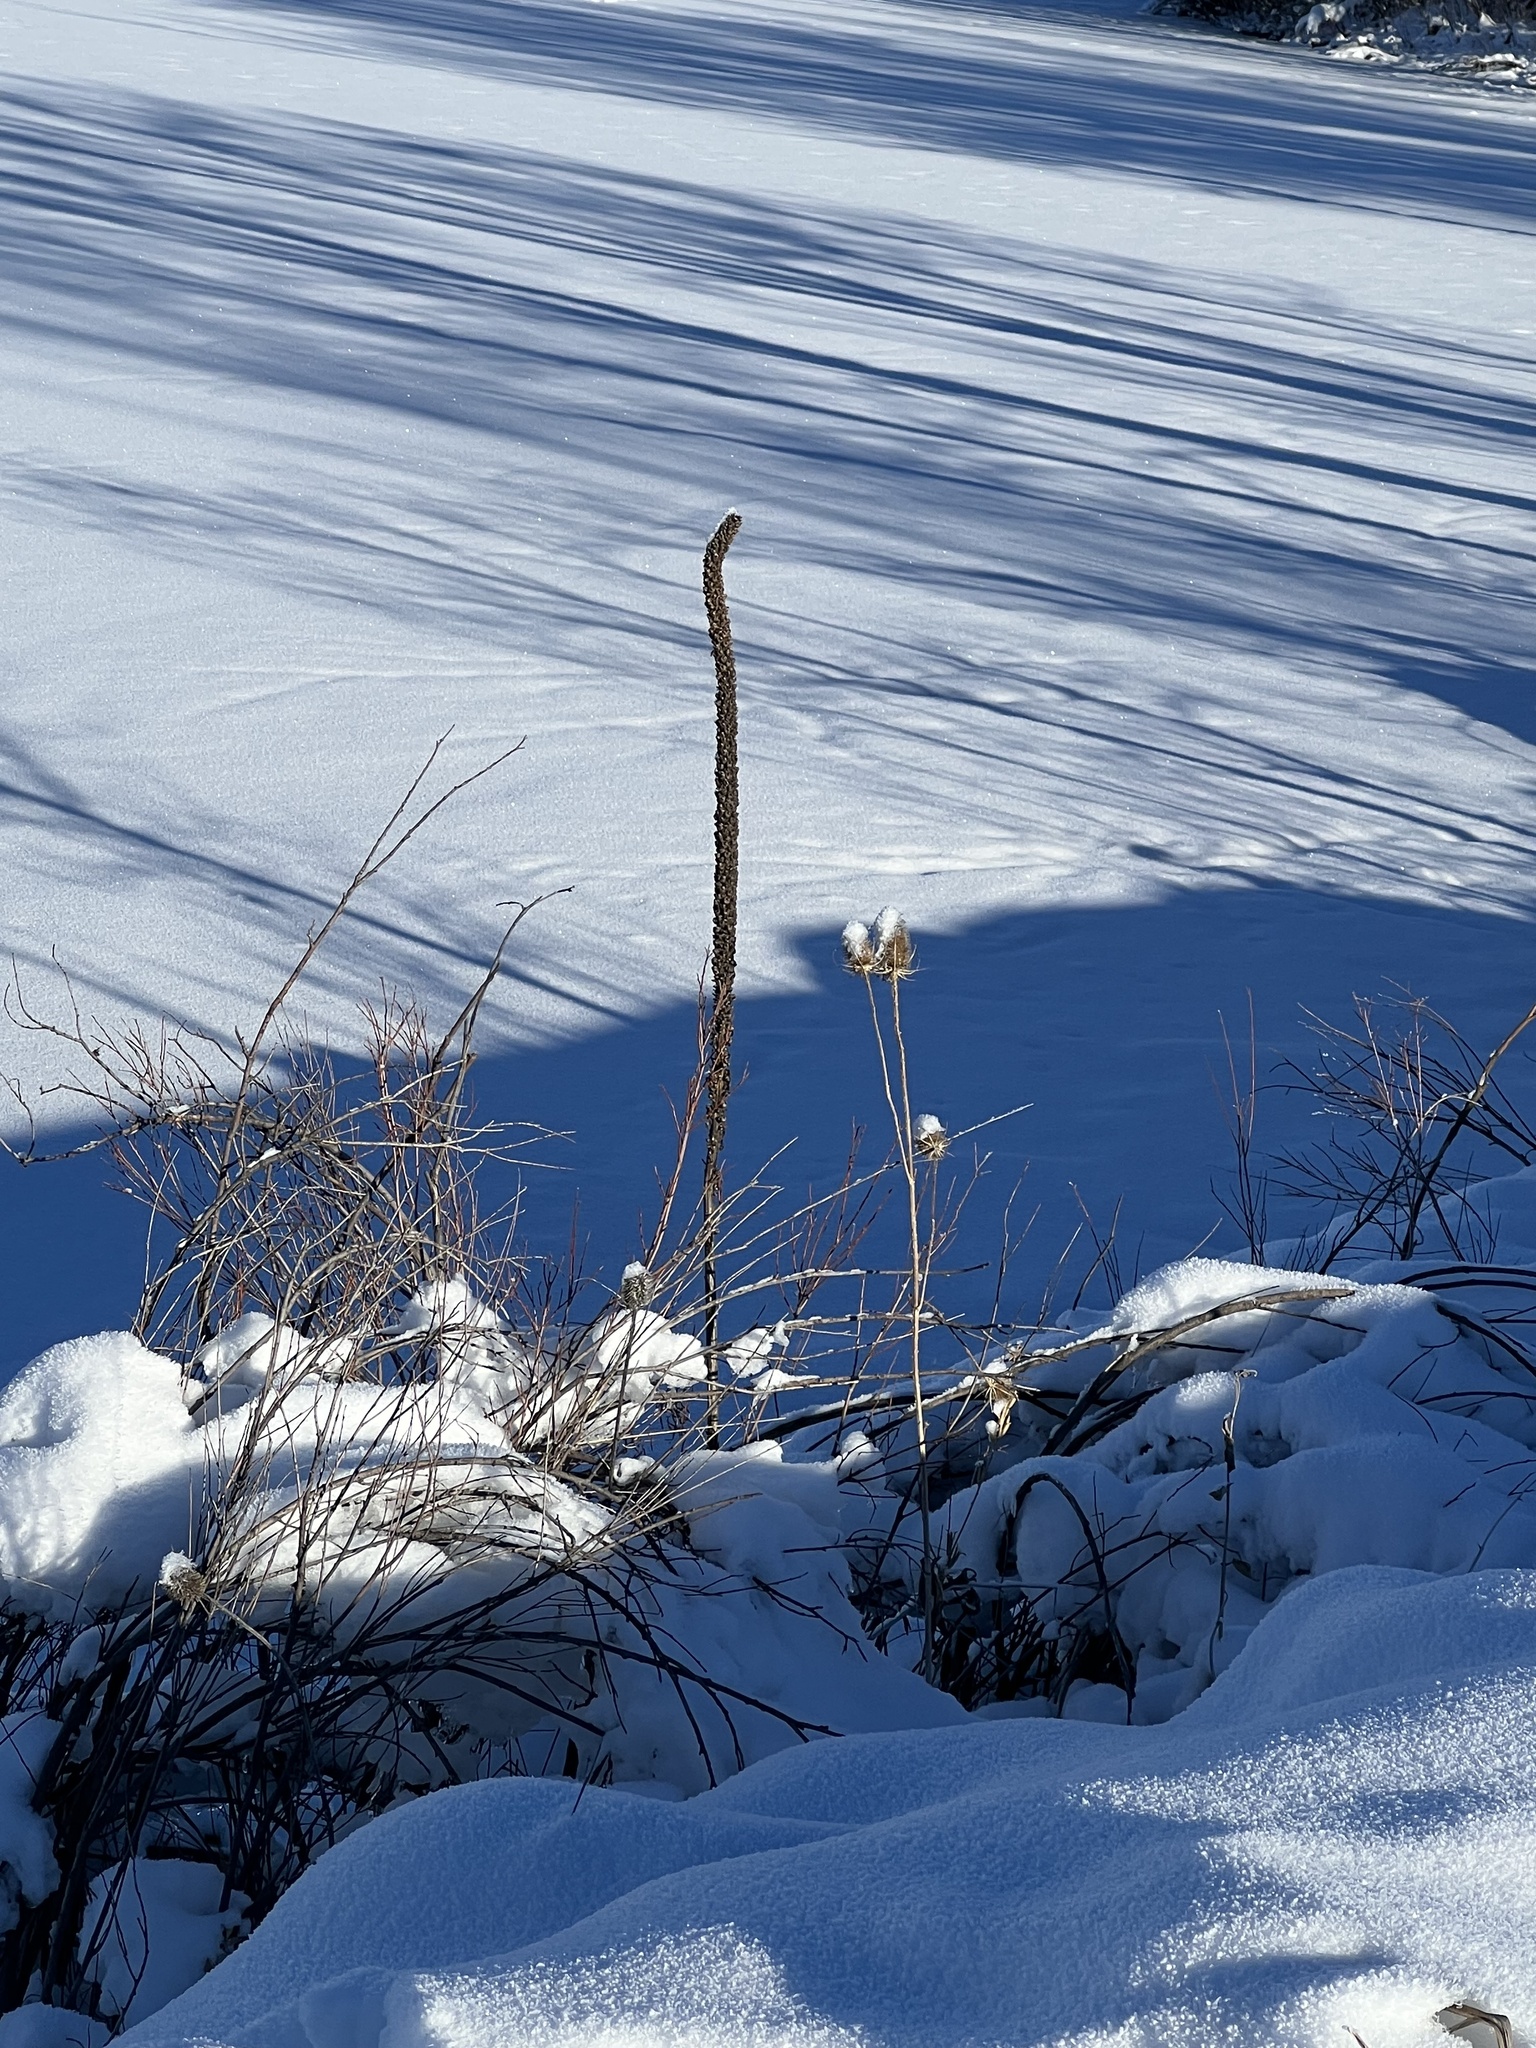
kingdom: Plantae
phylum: Tracheophyta
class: Magnoliopsida
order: Lamiales
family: Scrophulariaceae
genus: Verbascum
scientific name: Verbascum thapsus
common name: Common mullein
